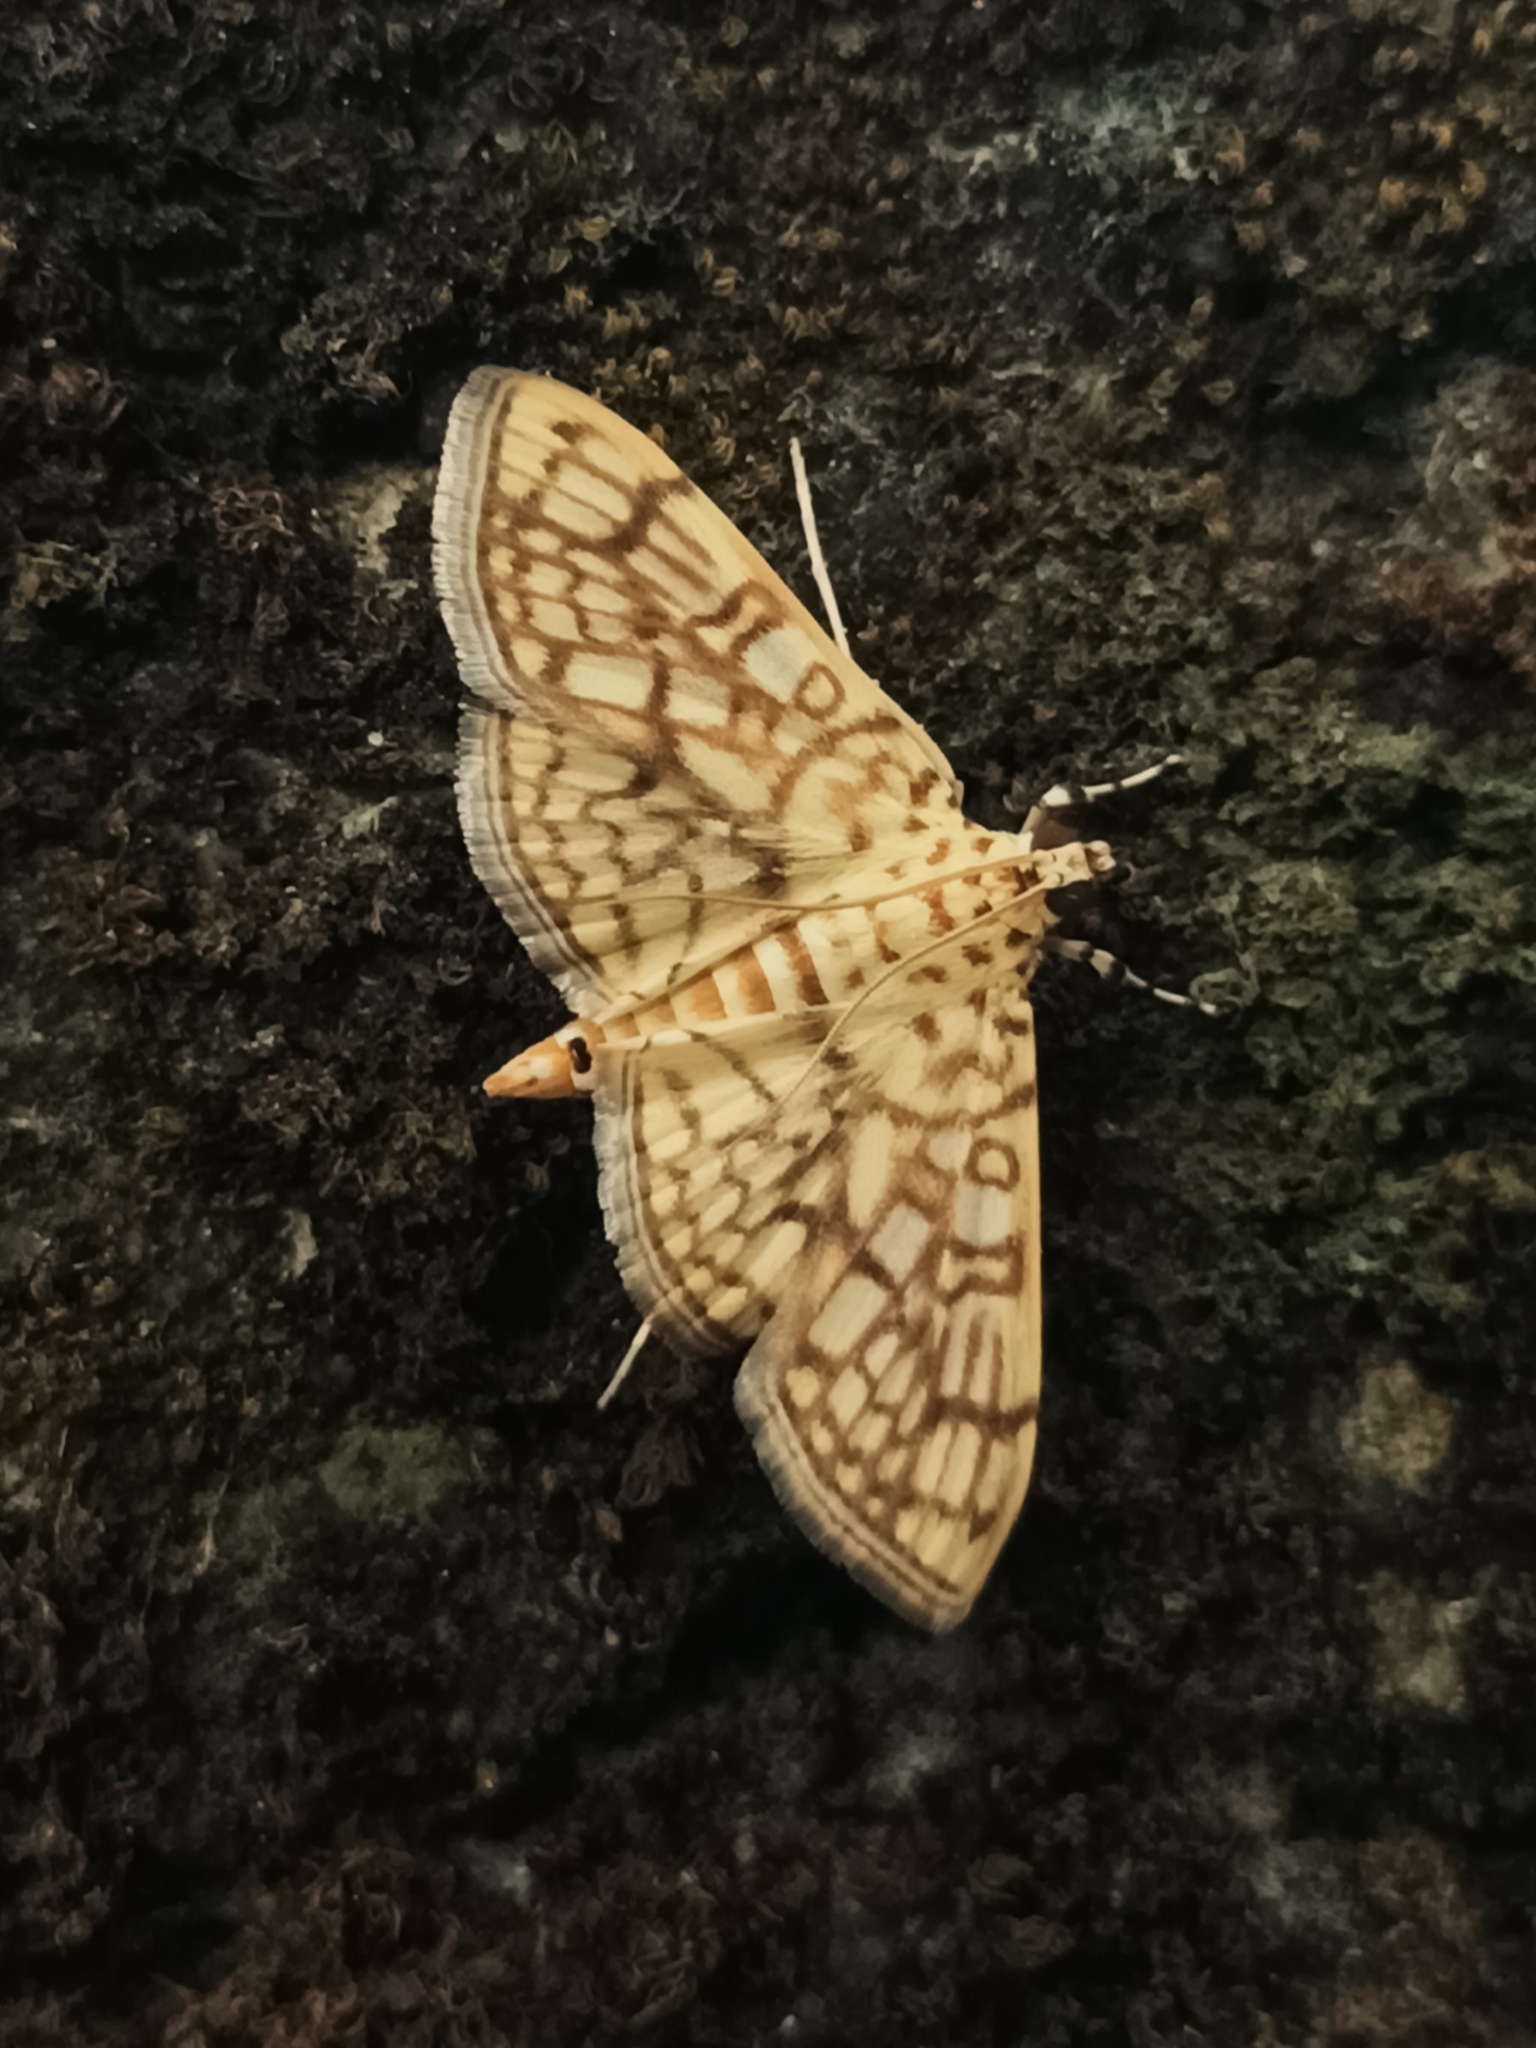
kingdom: Animalia
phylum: Arthropoda
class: Insecta
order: Lepidoptera
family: Crambidae
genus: Haritalodes
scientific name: Haritalodes derogata
